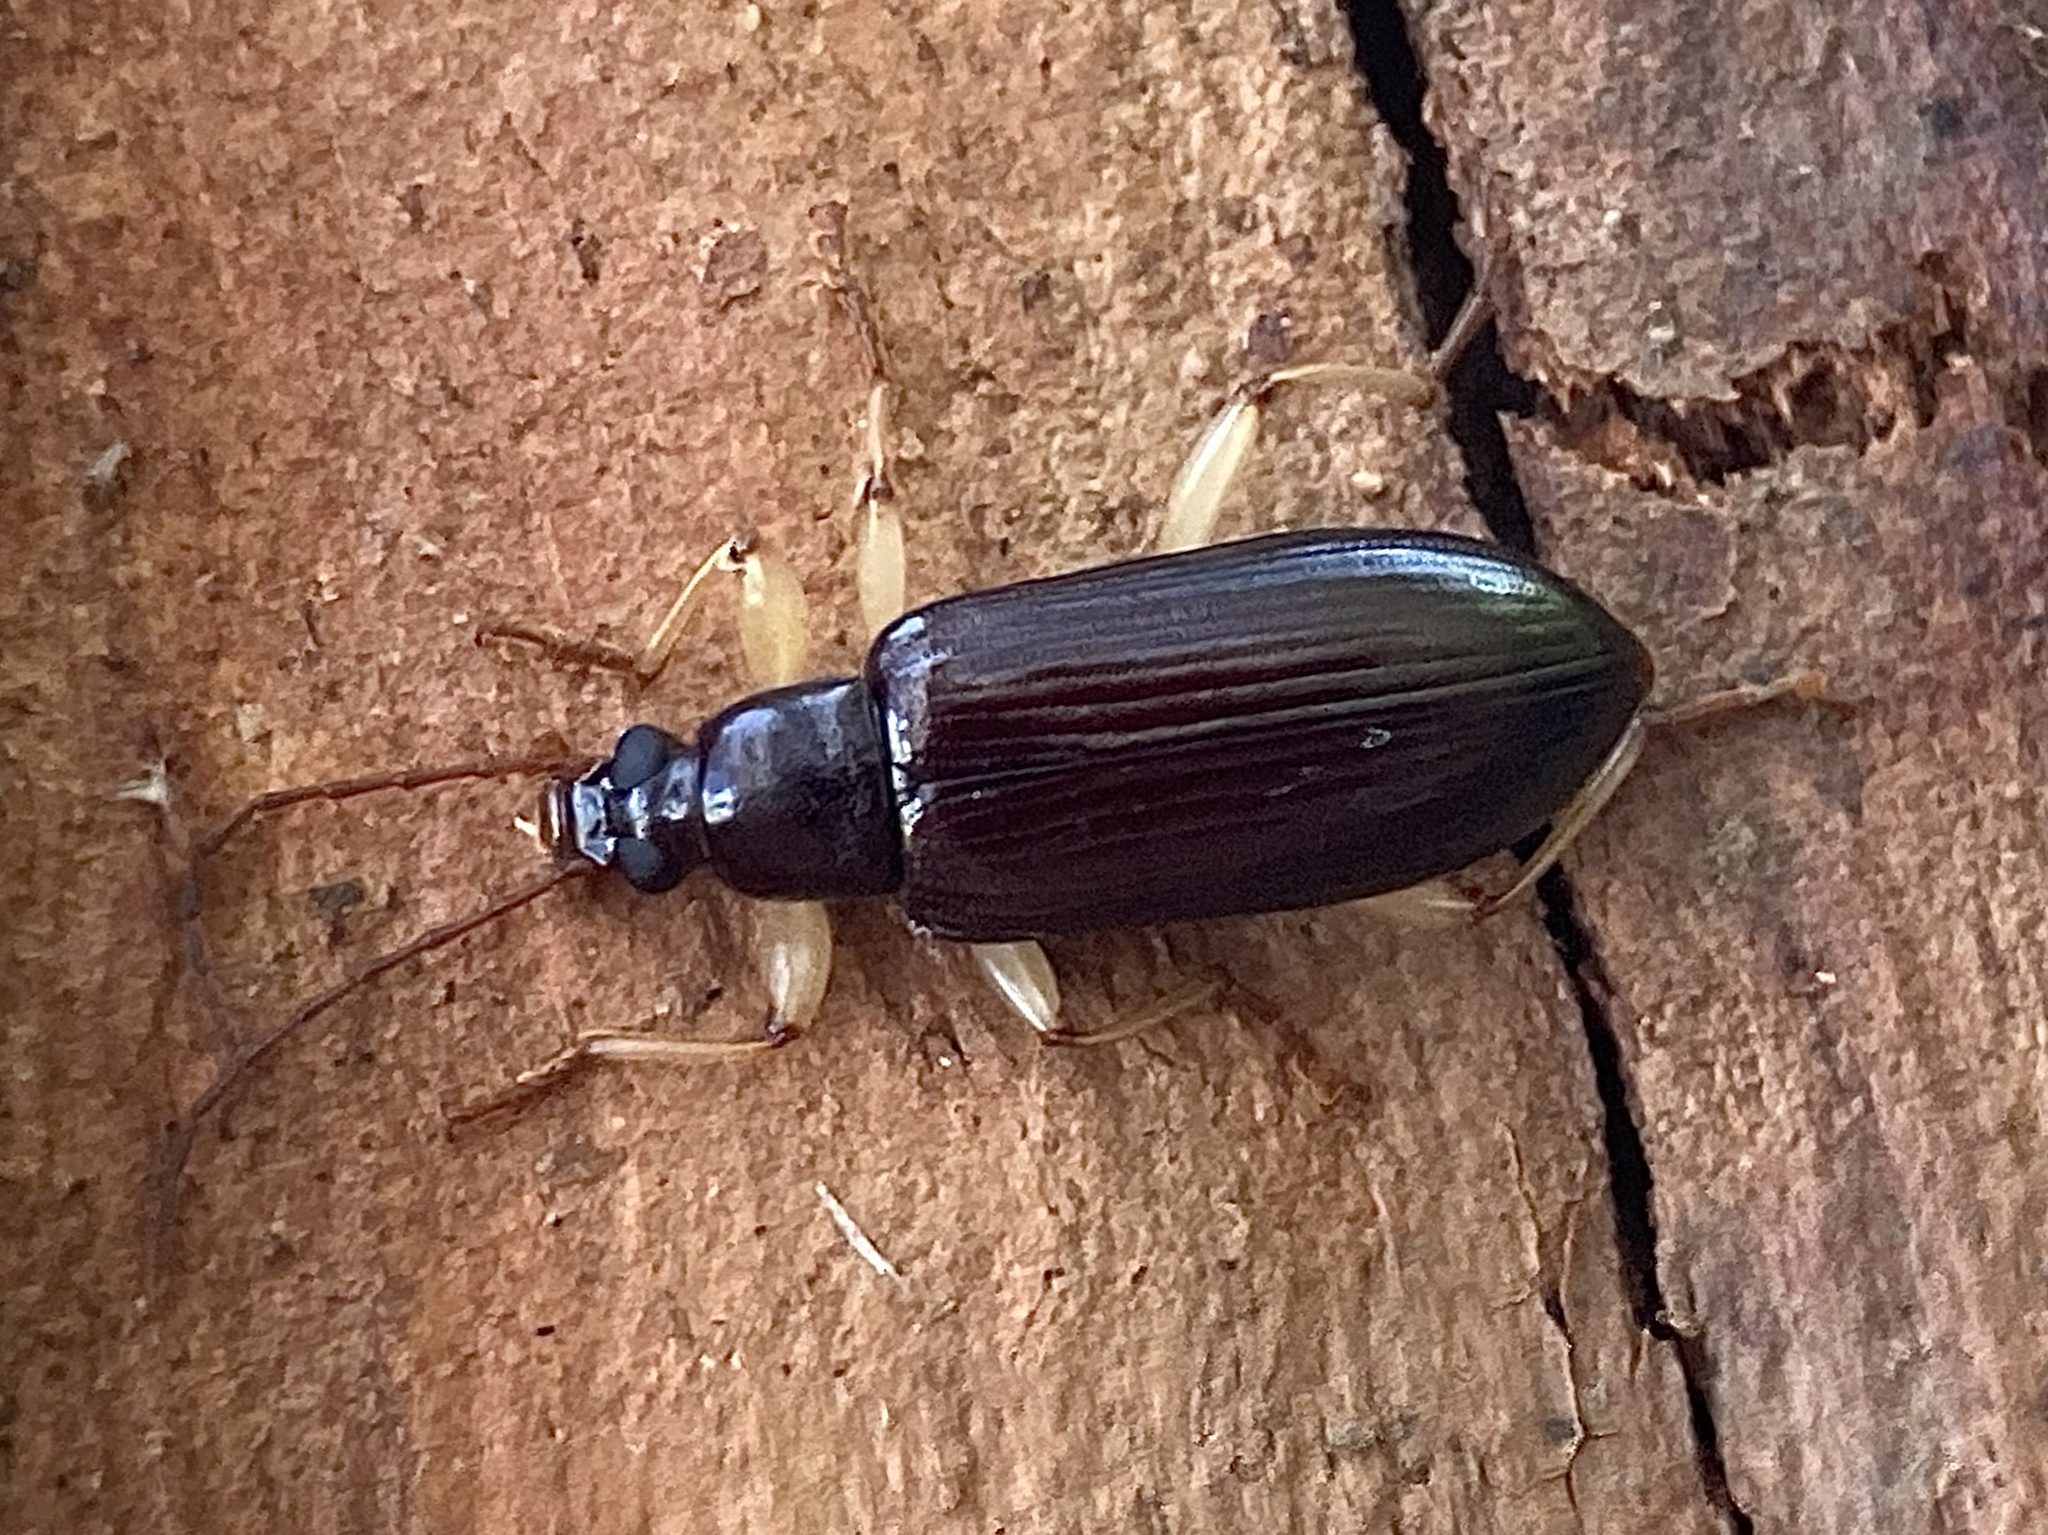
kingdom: Animalia
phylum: Arthropoda
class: Insecta
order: Coleoptera
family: Tenebrionidae
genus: Dimorphochilus
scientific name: Dimorphochilus
